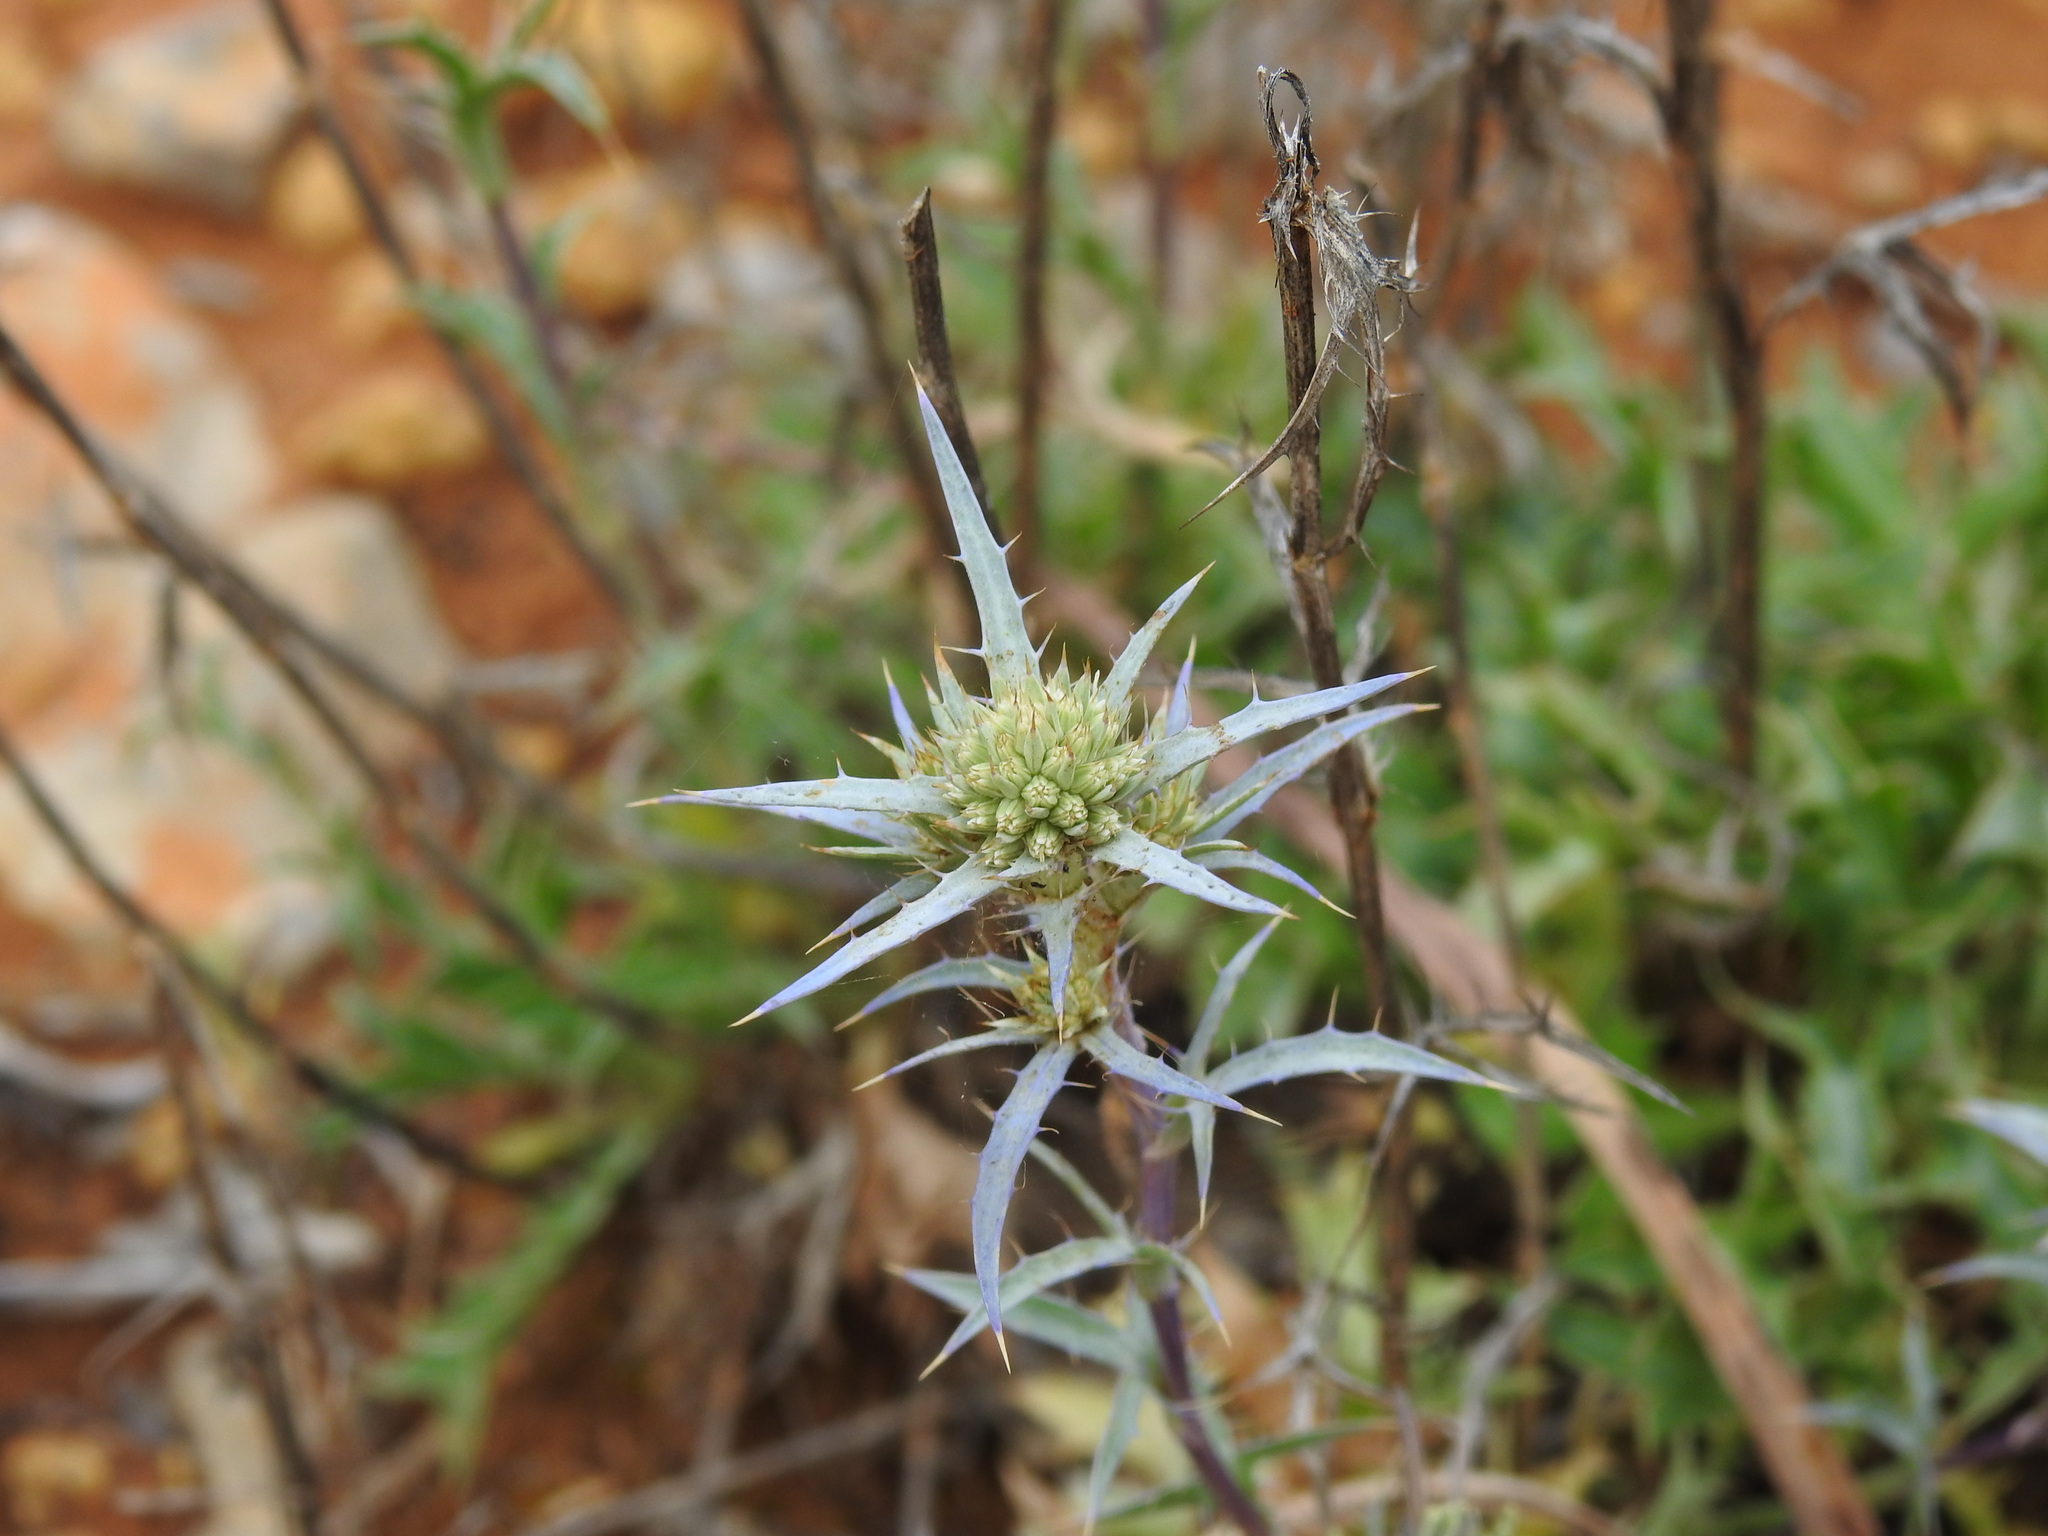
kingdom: Plantae
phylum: Tracheophyta
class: Magnoliopsida
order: Apiales
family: Apiaceae
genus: Eryngium
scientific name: Eryngium dilatatum
